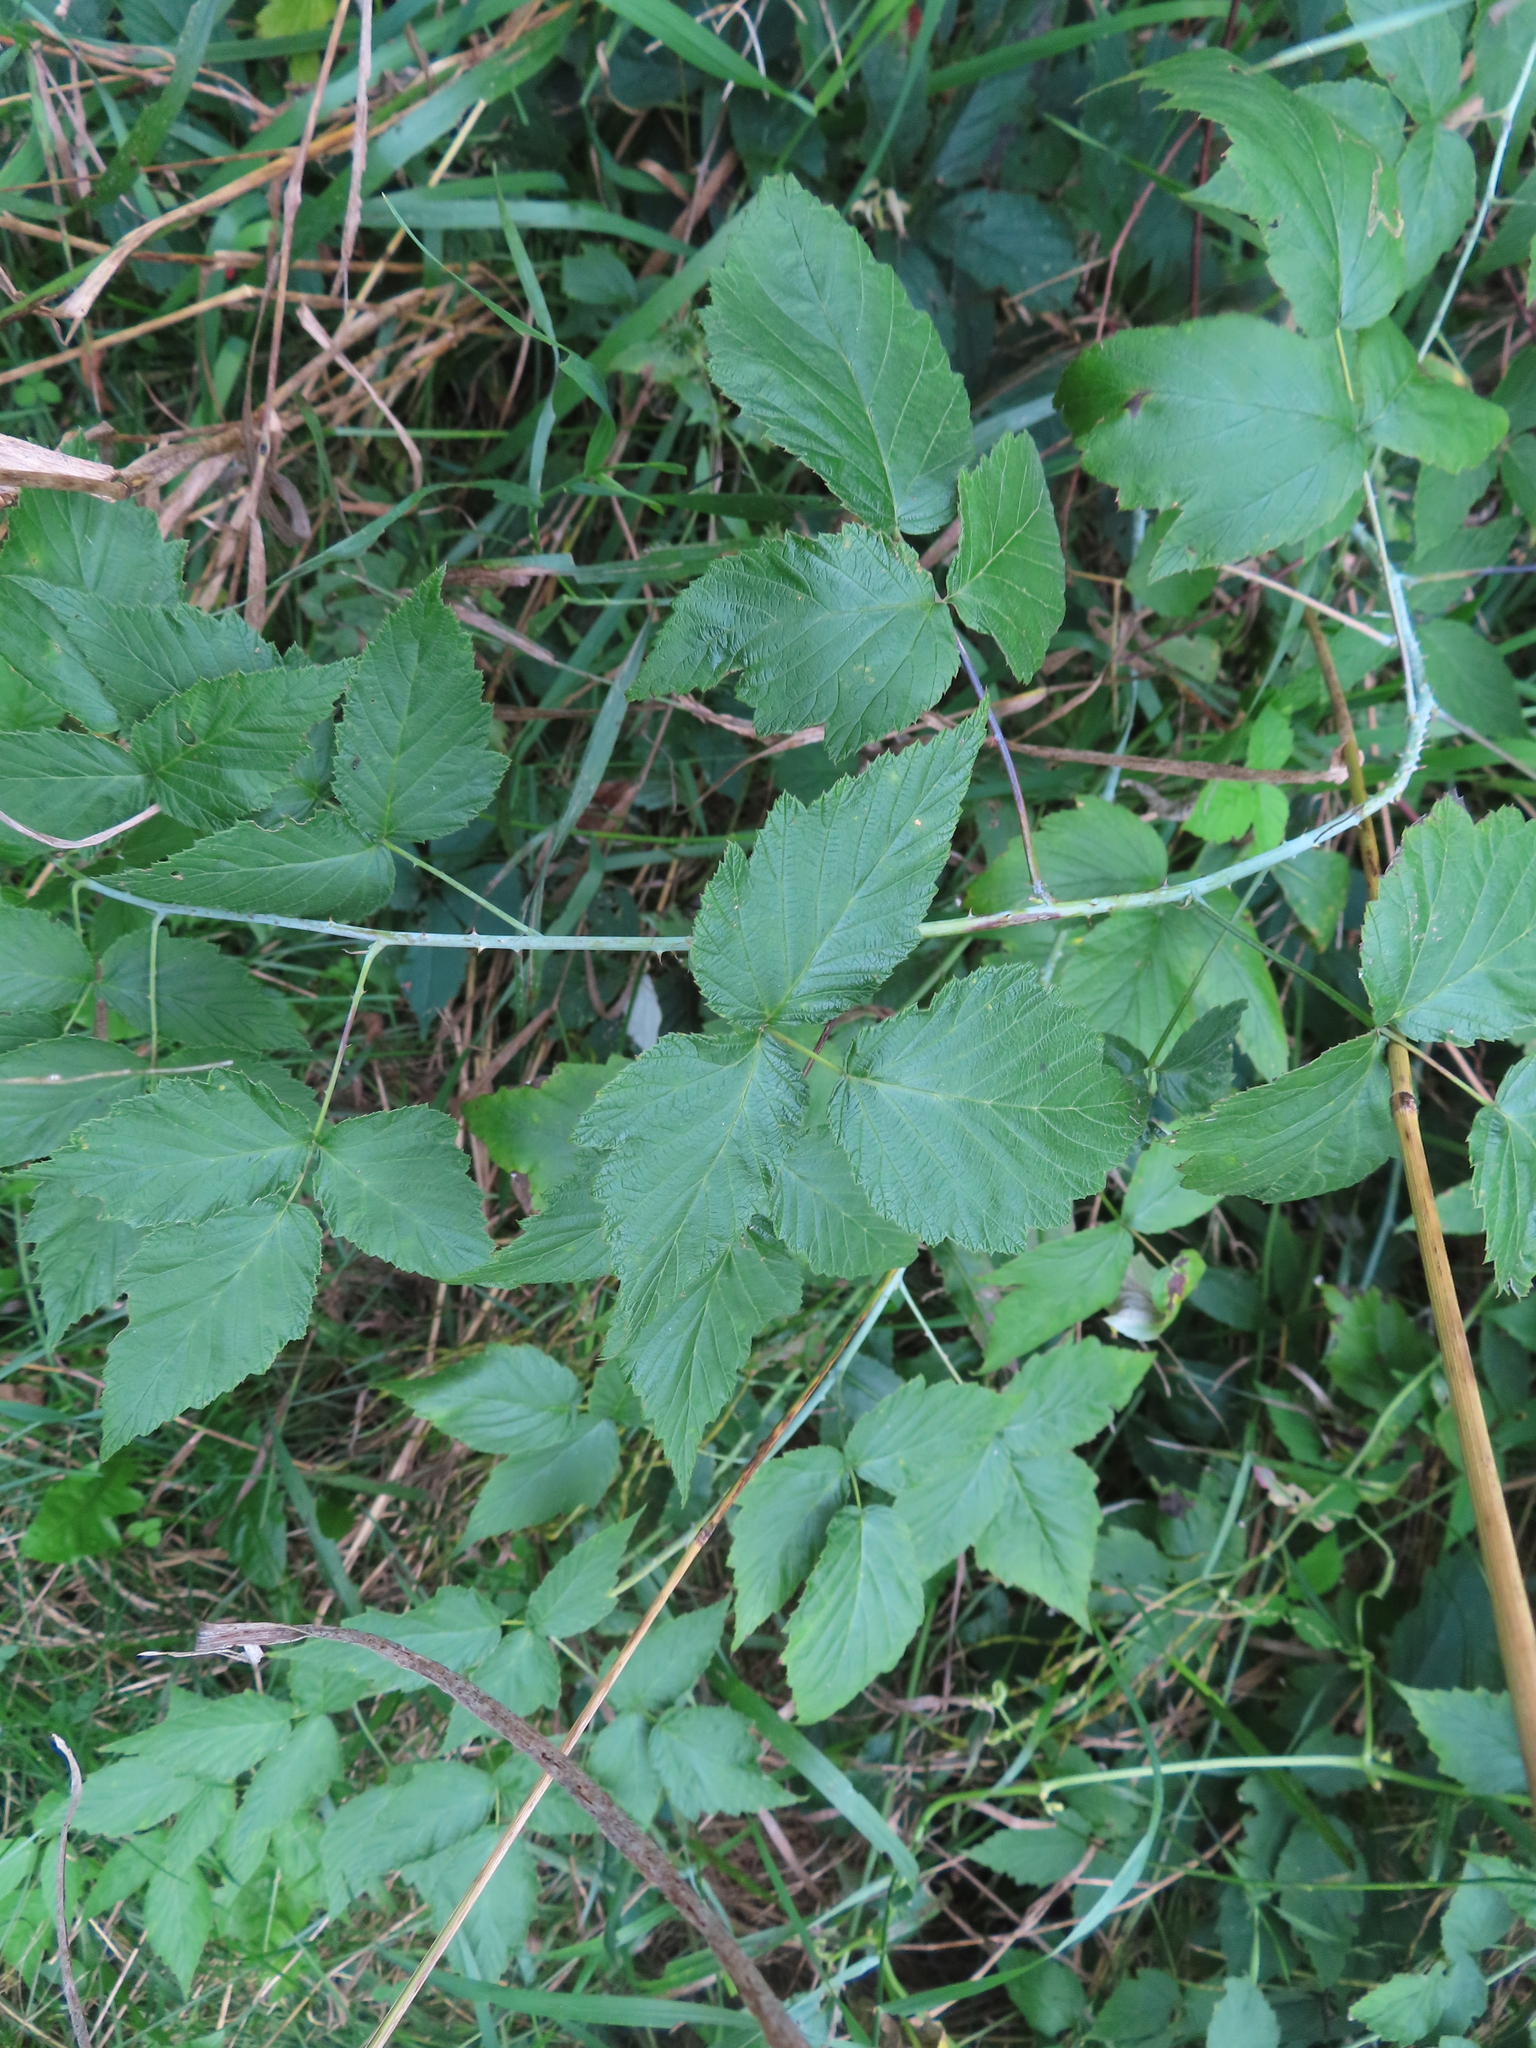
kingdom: Plantae
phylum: Tracheophyta
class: Magnoliopsida
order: Rosales
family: Rosaceae
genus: Rubus
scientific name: Rubus occidentalis
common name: Black raspberry
